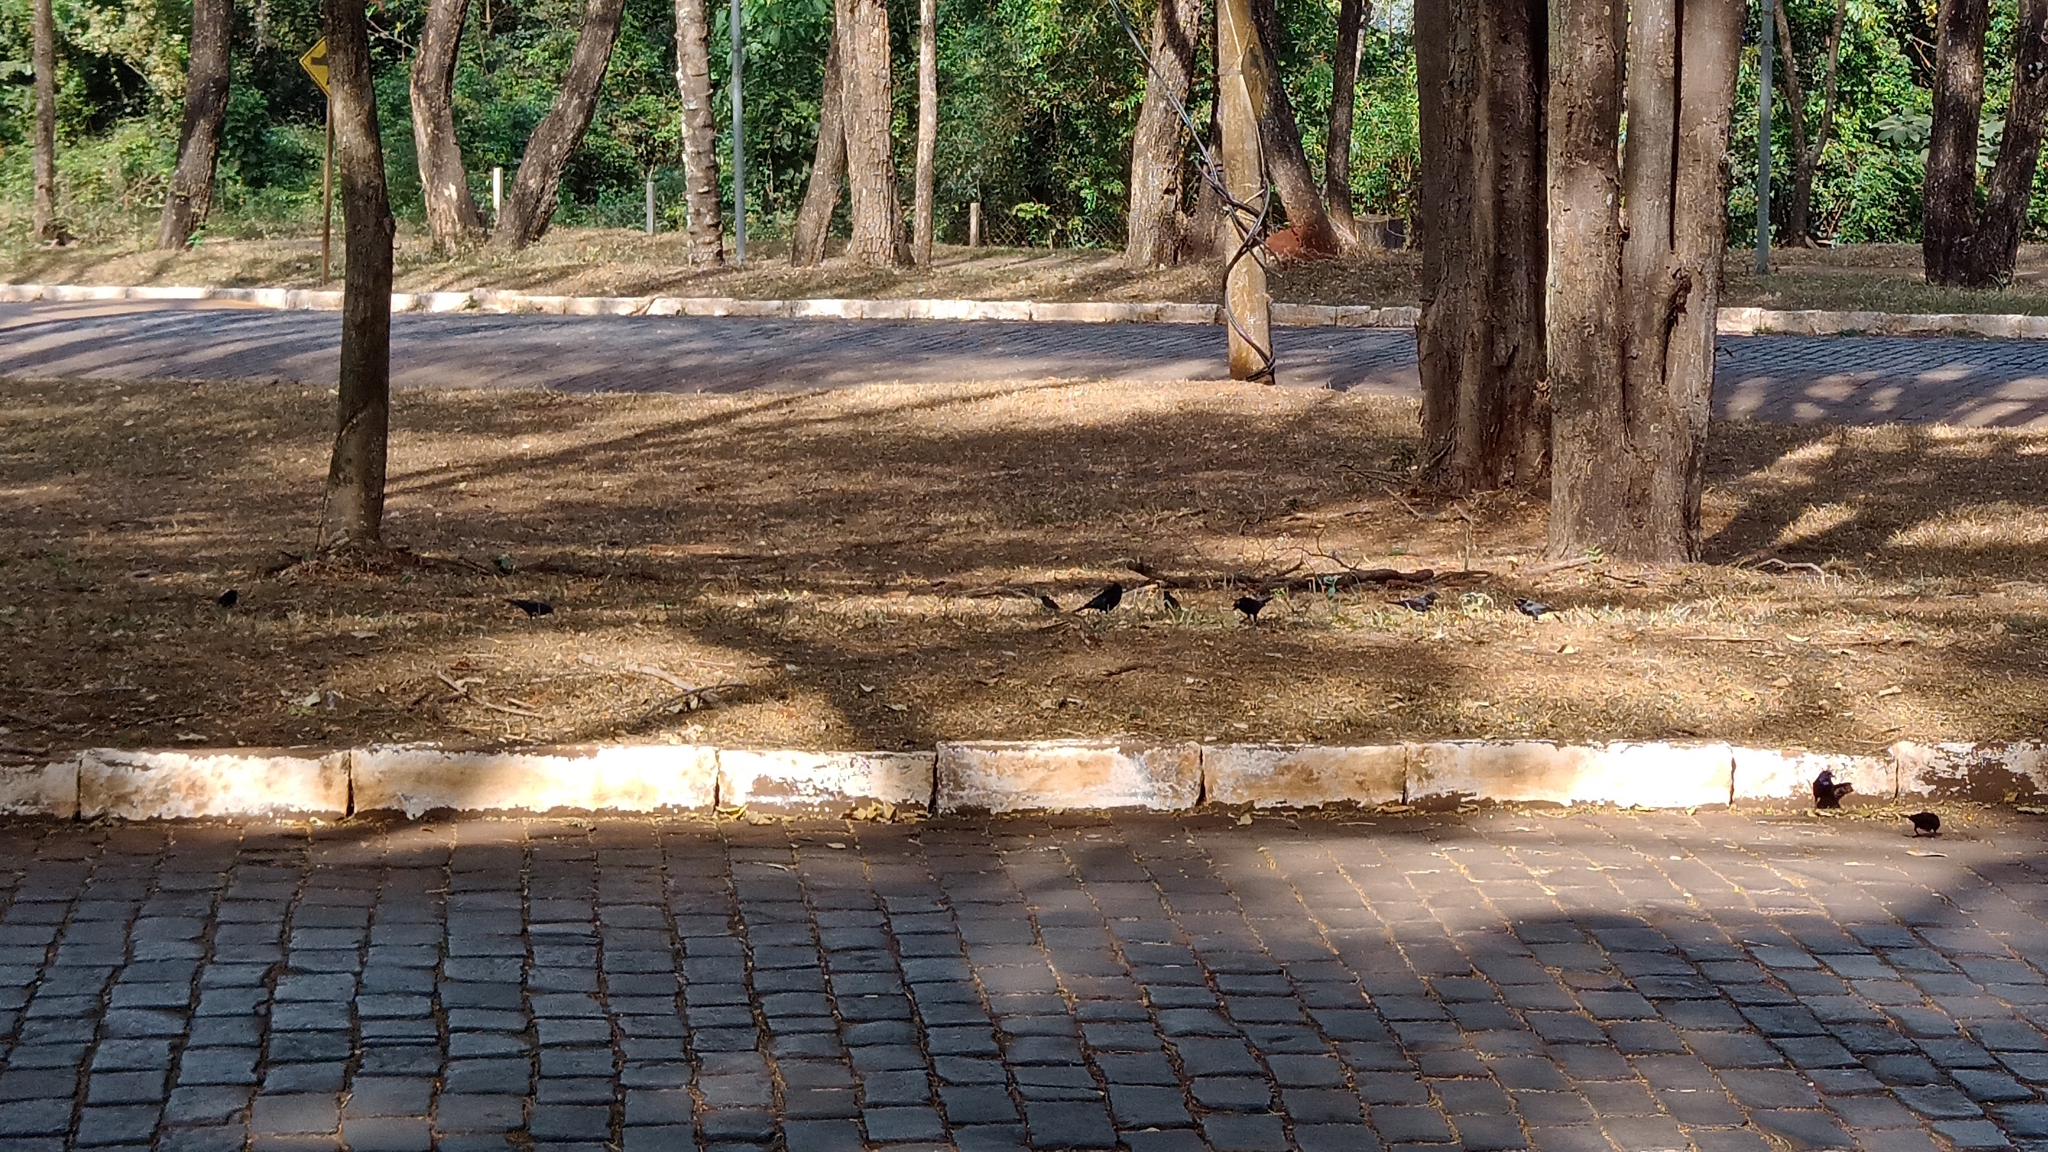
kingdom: Animalia
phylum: Chordata
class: Aves
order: Passeriformes
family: Icteridae
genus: Molothrus
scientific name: Molothrus bonariensis
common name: Shiny cowbird
